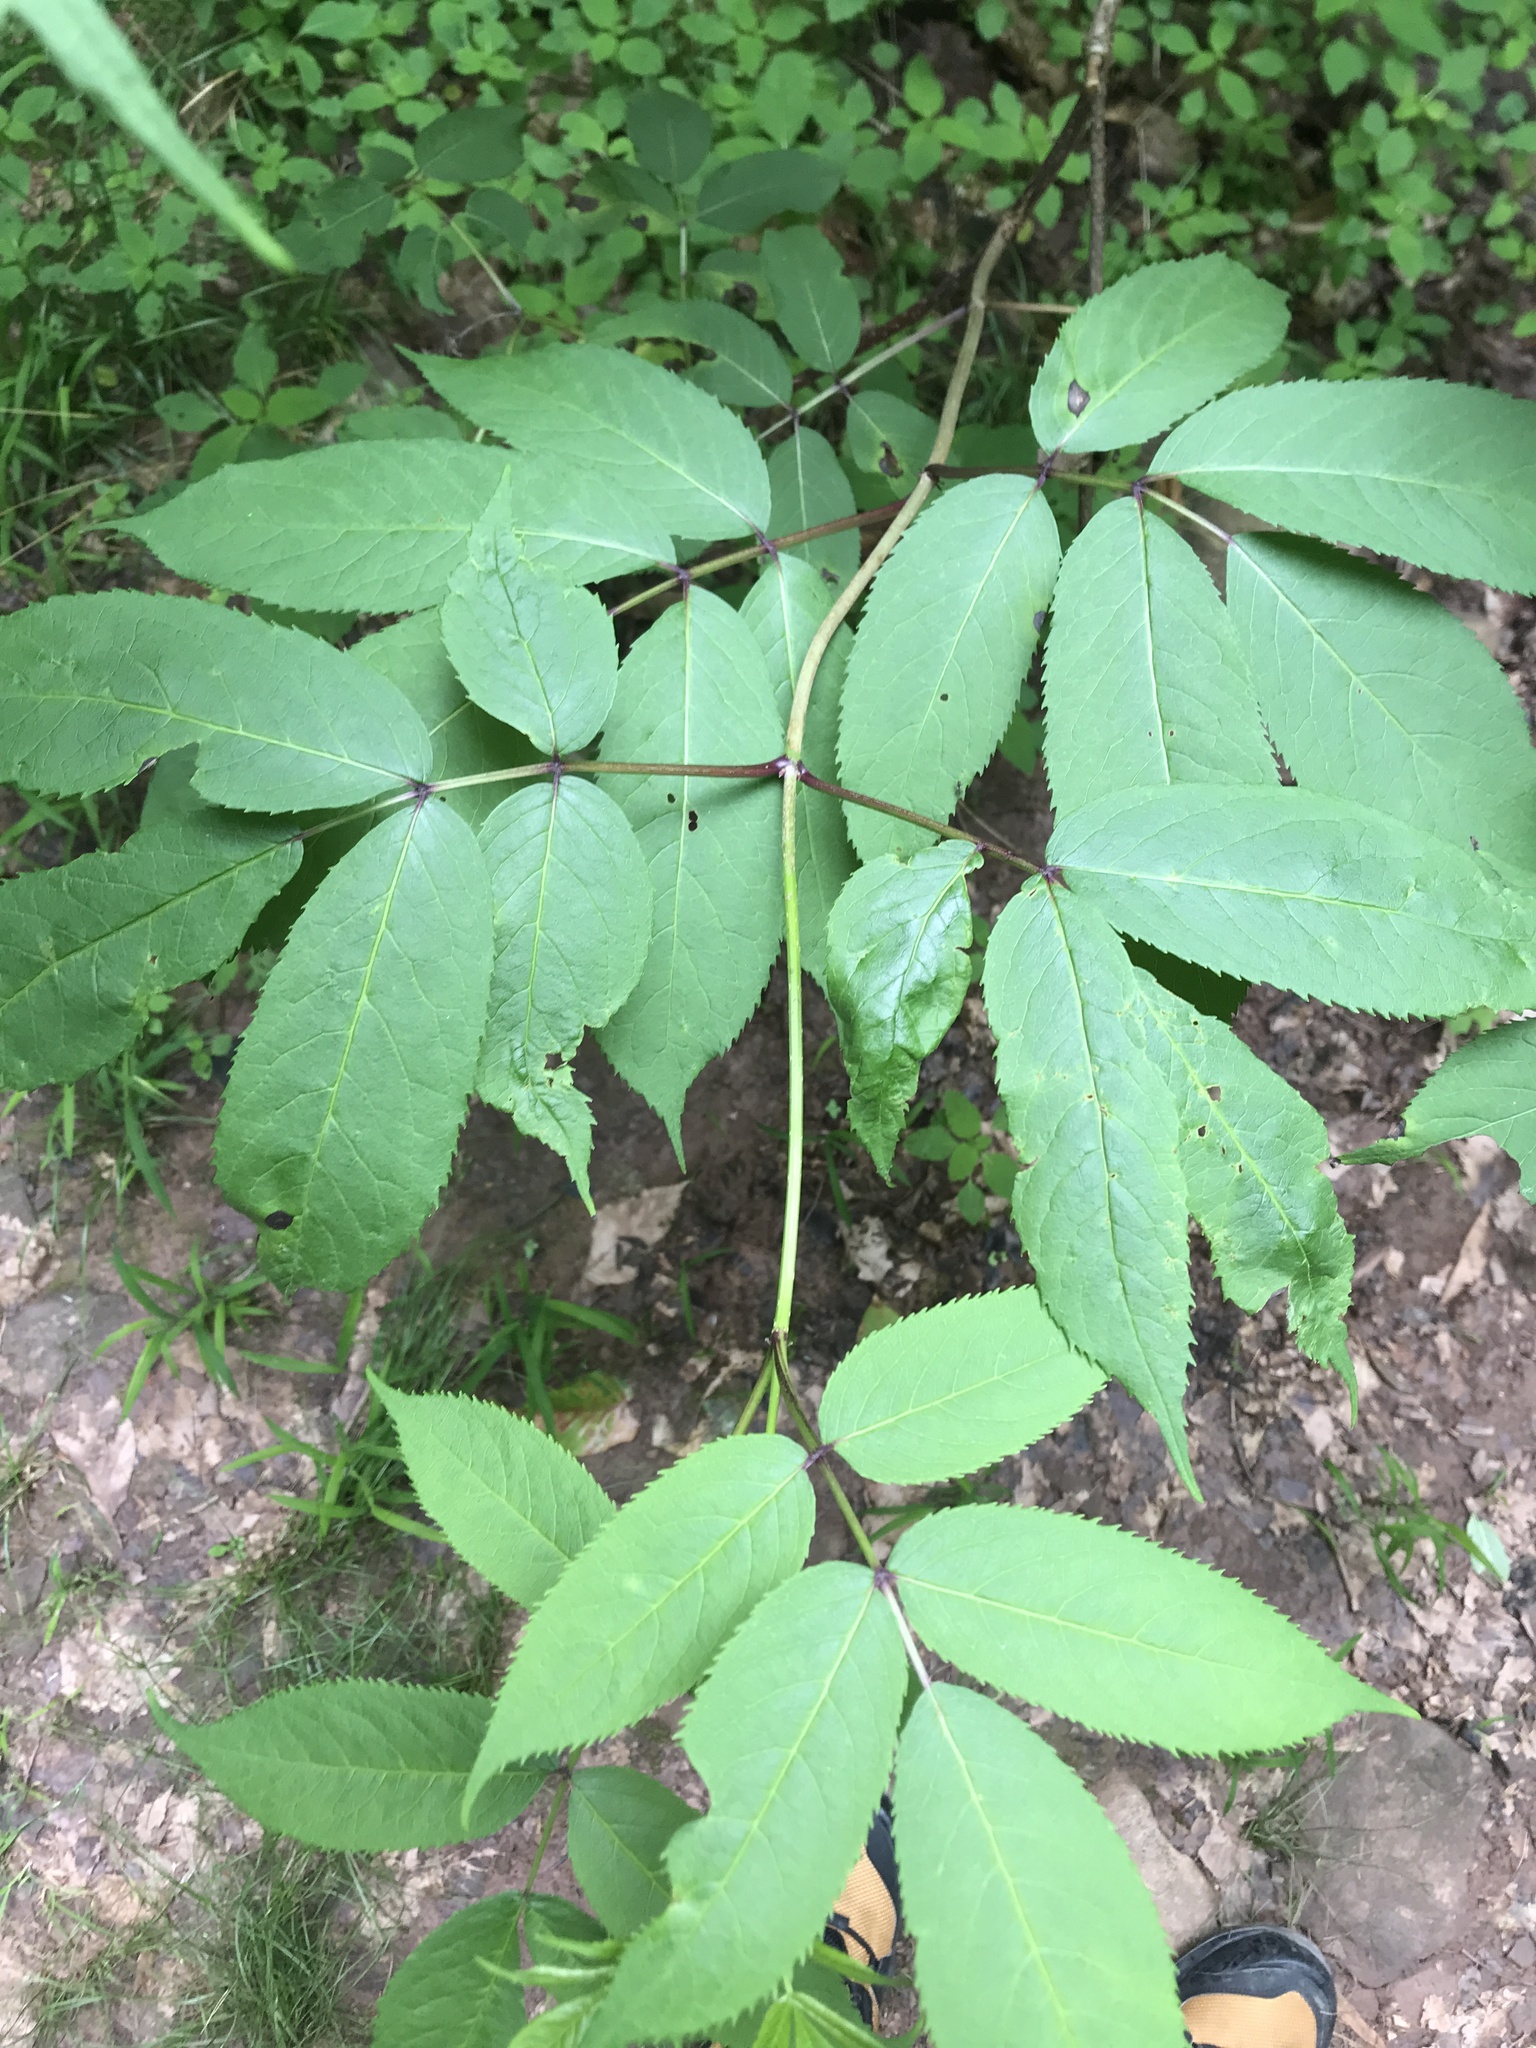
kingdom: Plantae
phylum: Tracheophyta
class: Magnoliopsida
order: Dipsacales
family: Viburnaceae
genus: Sambucus
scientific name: Sambucus racemosa
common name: Red-berried elder
